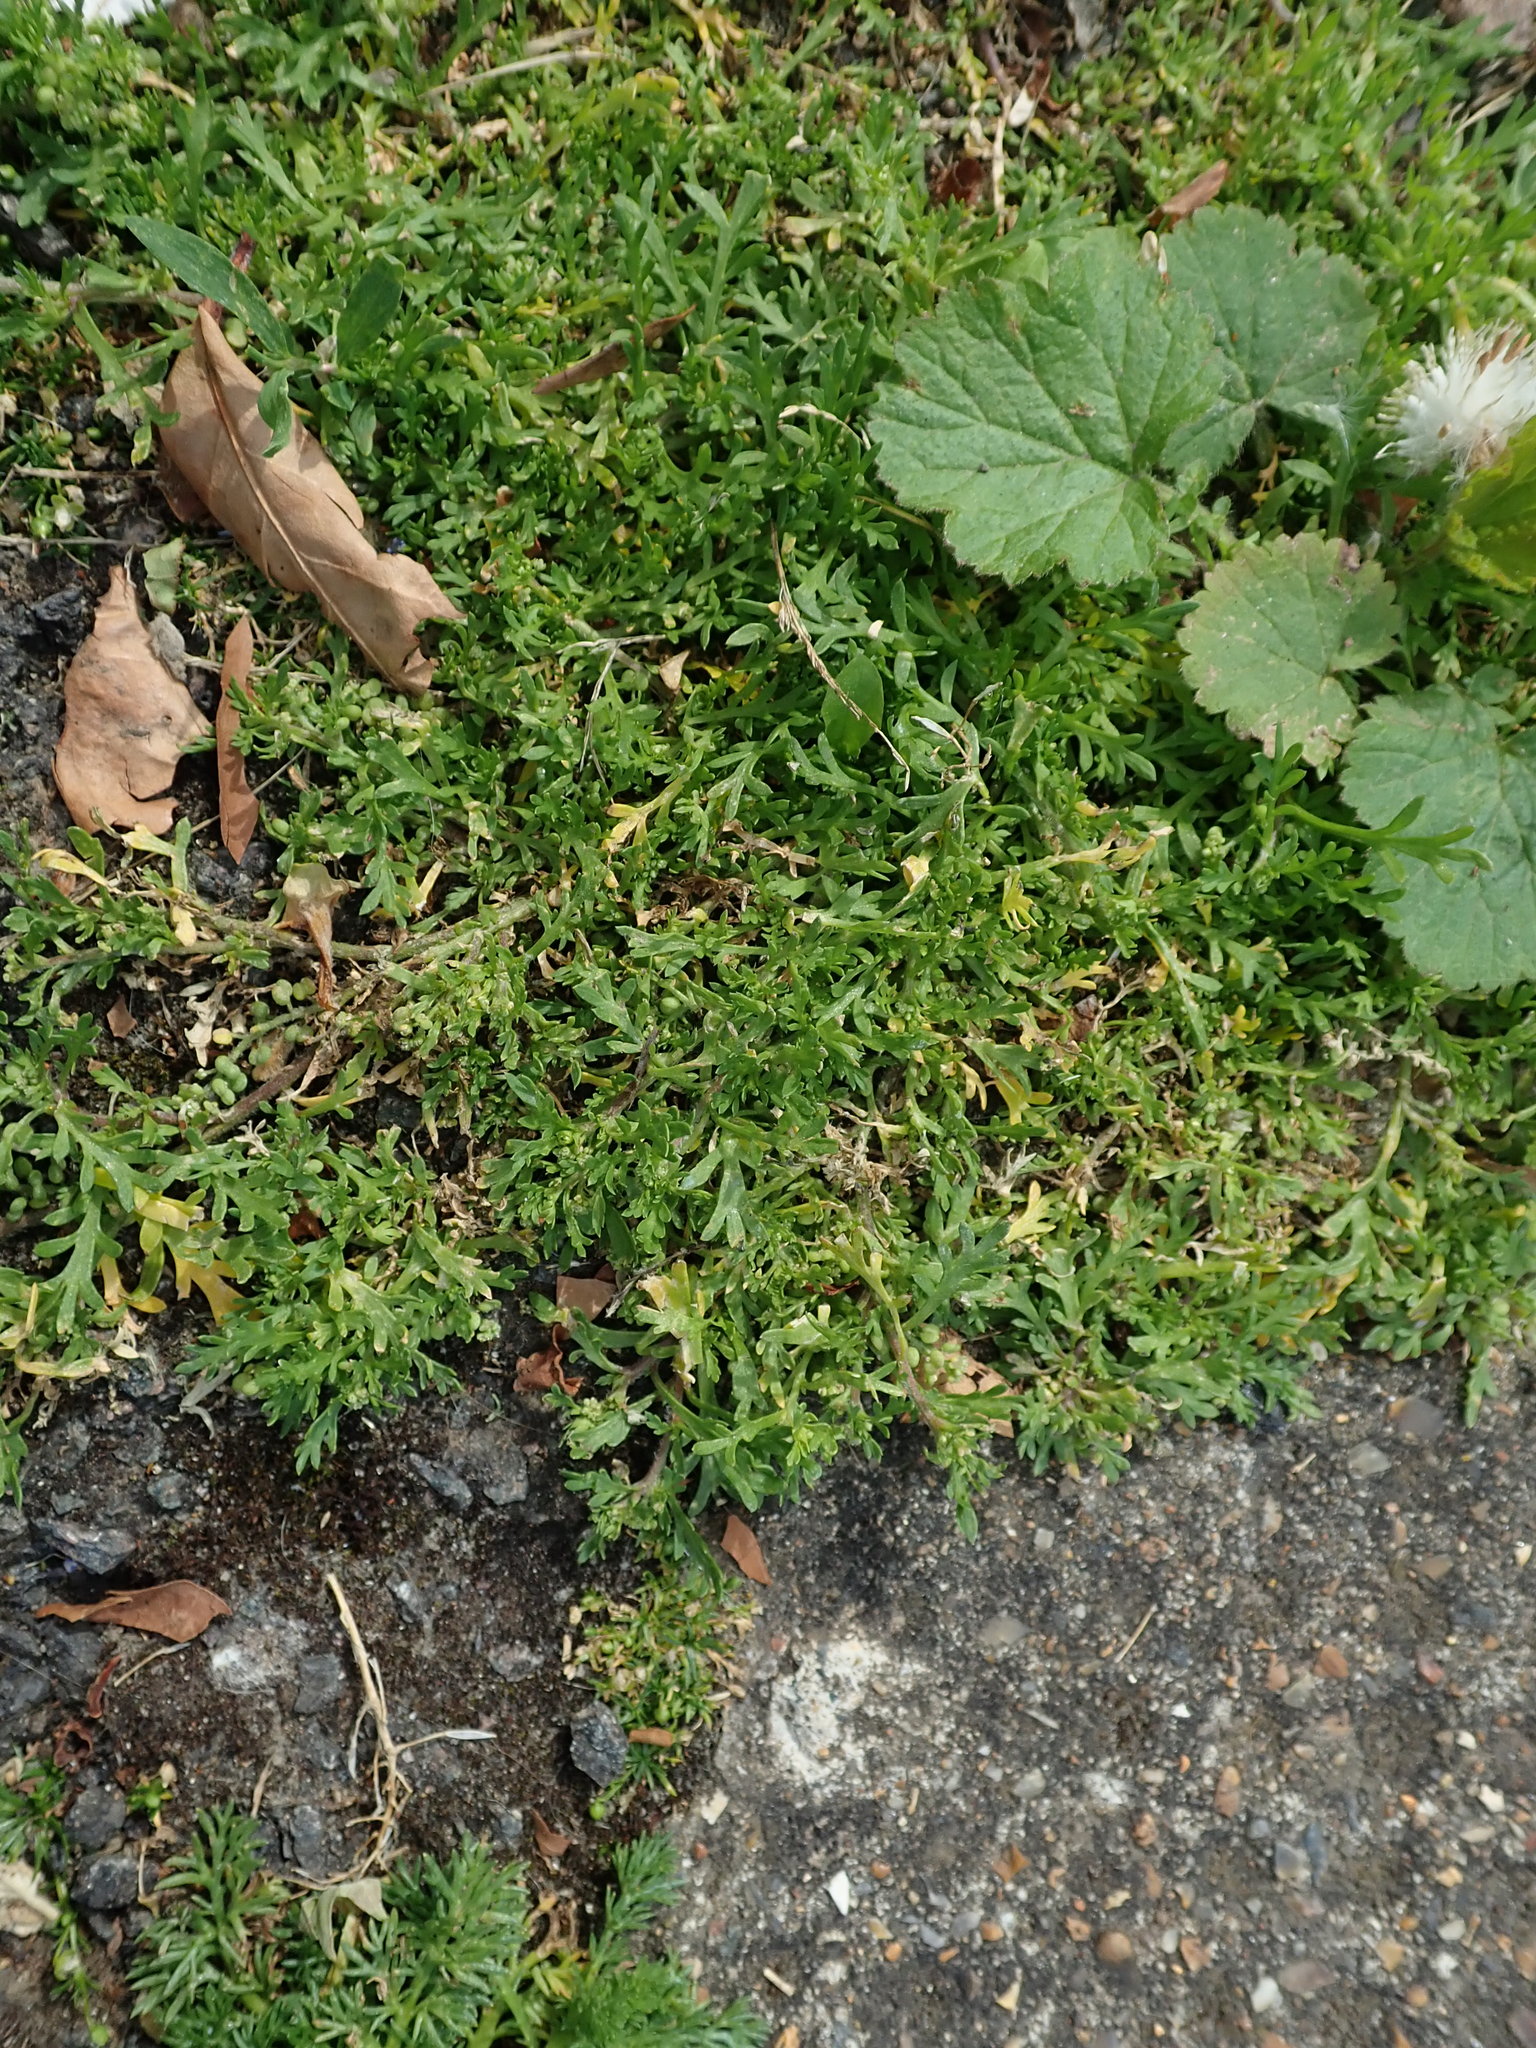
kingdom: Plantae
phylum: Tracheophyta
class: Magnoliopsida
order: Brassicales
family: Brassicaceae
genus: Lepidium
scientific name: Lepidium didymum
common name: Lesser swinecress
